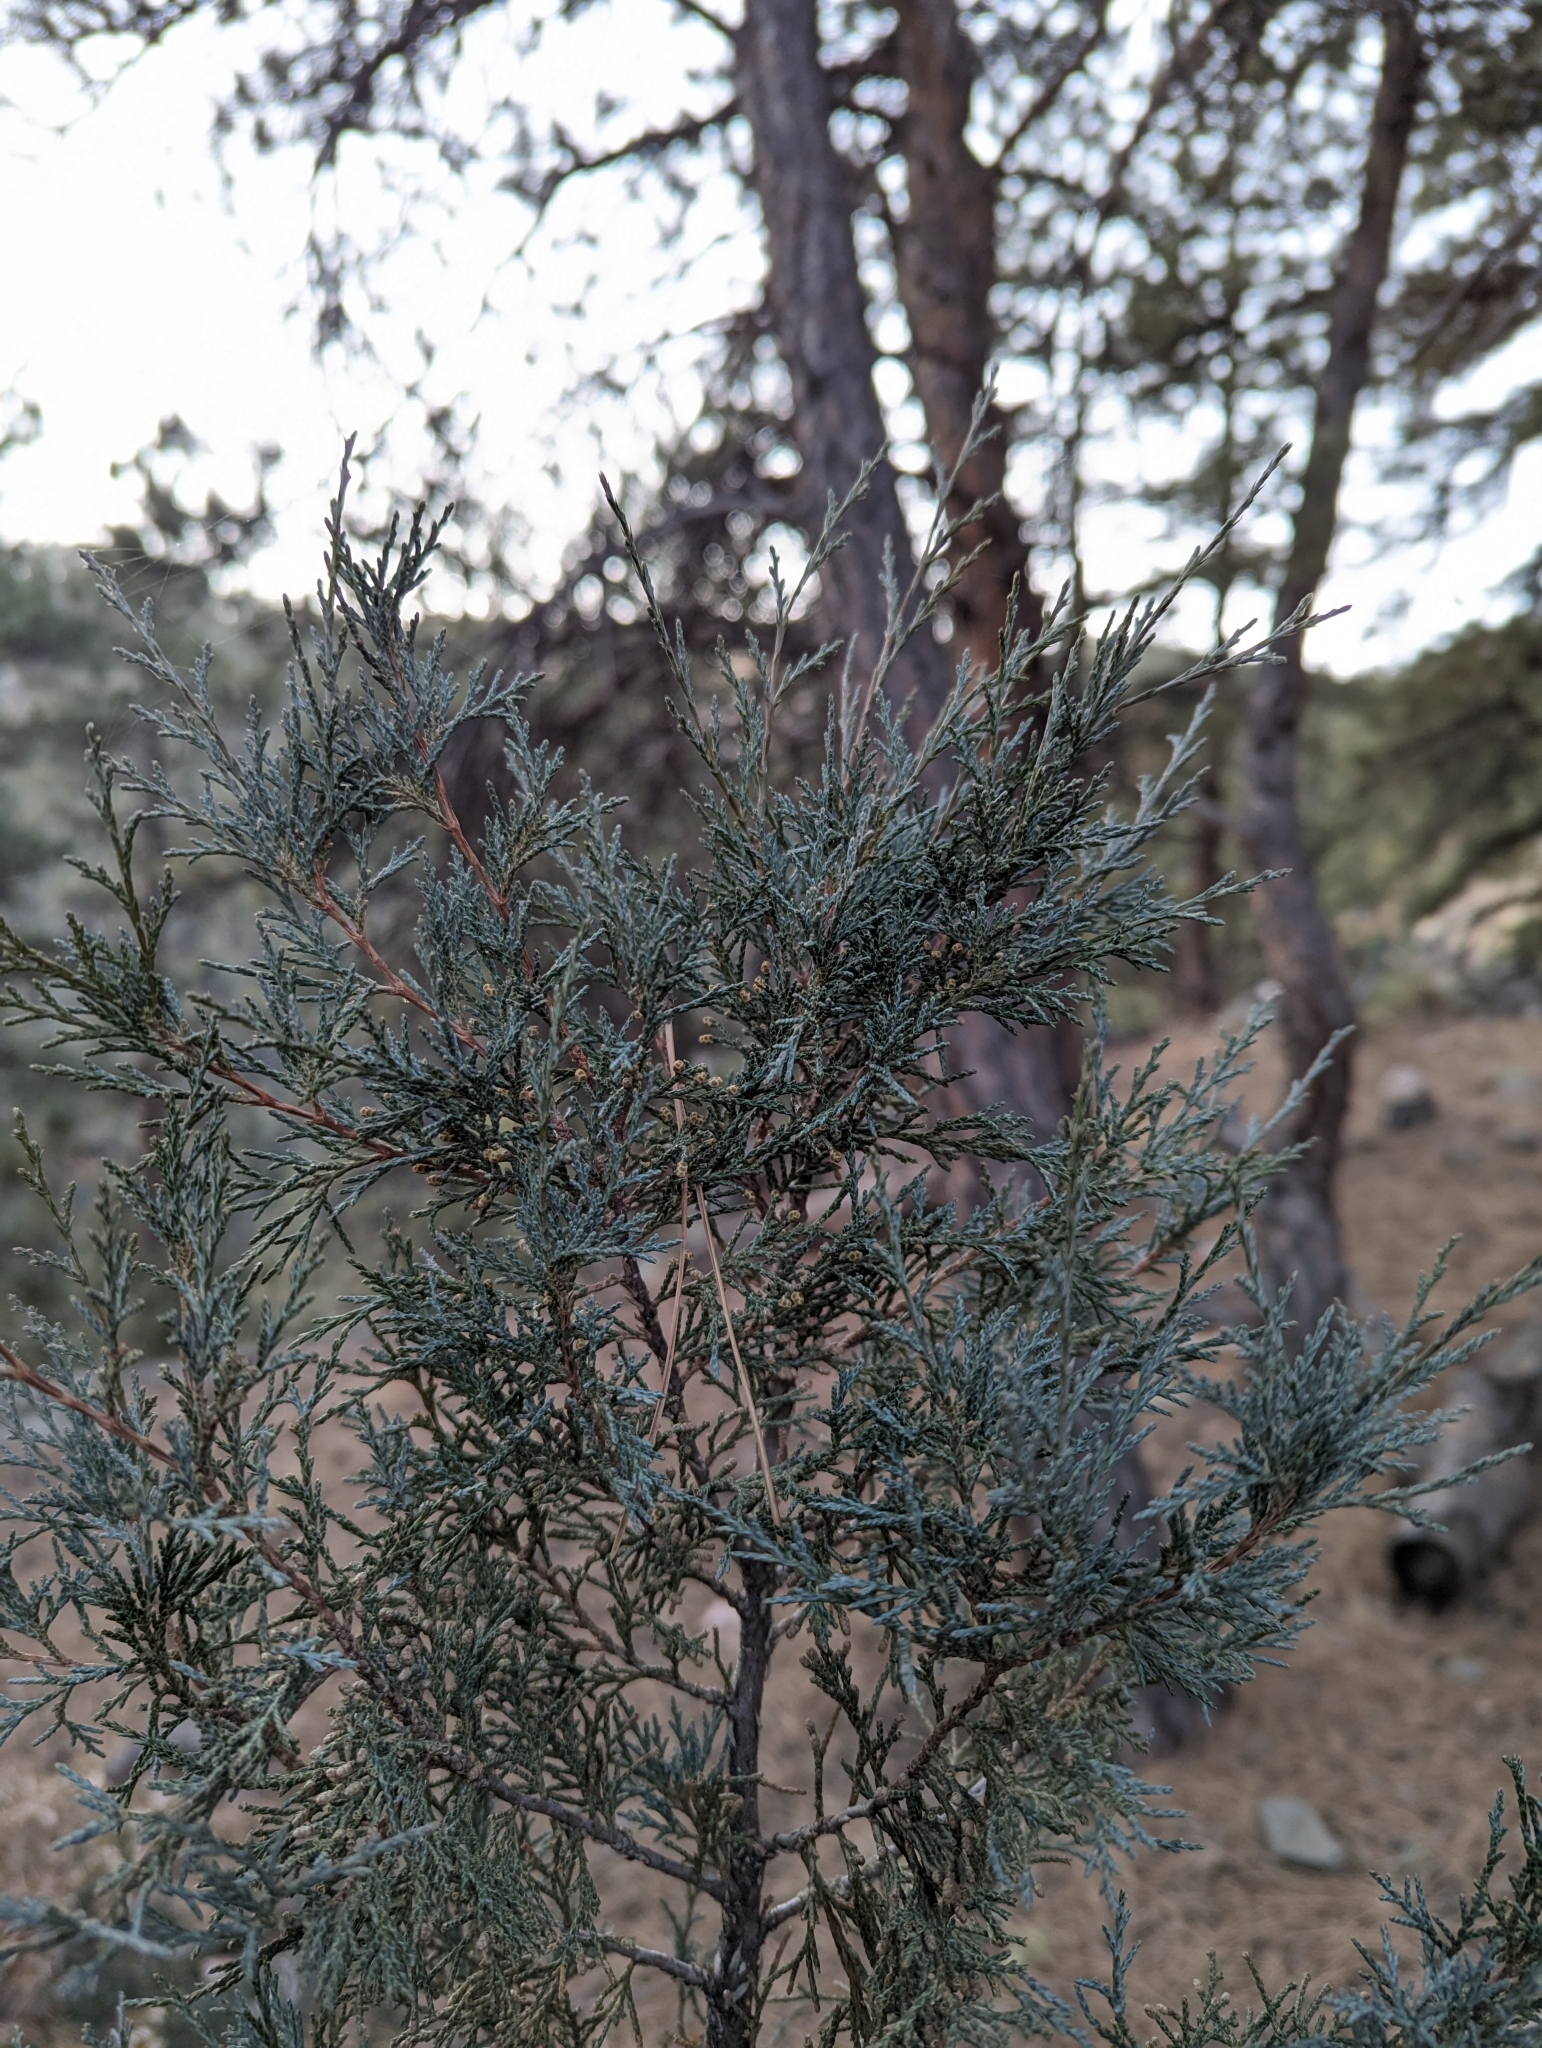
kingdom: Plantae
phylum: Tracheophyta
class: Pinopsida
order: Pinales
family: Cupressaceae
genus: Juniperus
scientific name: Juniperus scopulorum
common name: Rocky mountain juniper
